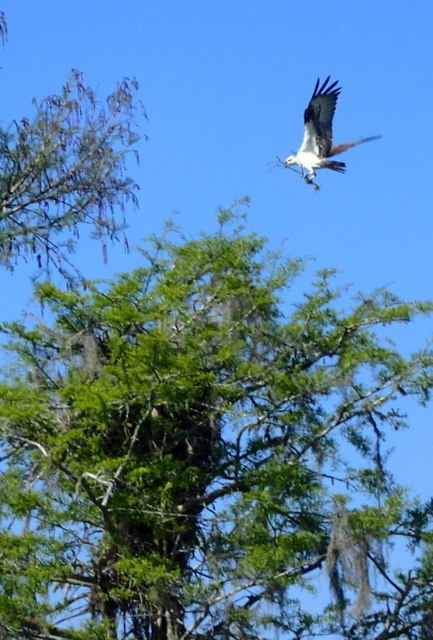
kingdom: Animalia
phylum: Chordata
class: Aves
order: Accipitriformes
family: Pandionidae
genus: Pandion
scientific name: Pandion haliaetus
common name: Osprey
